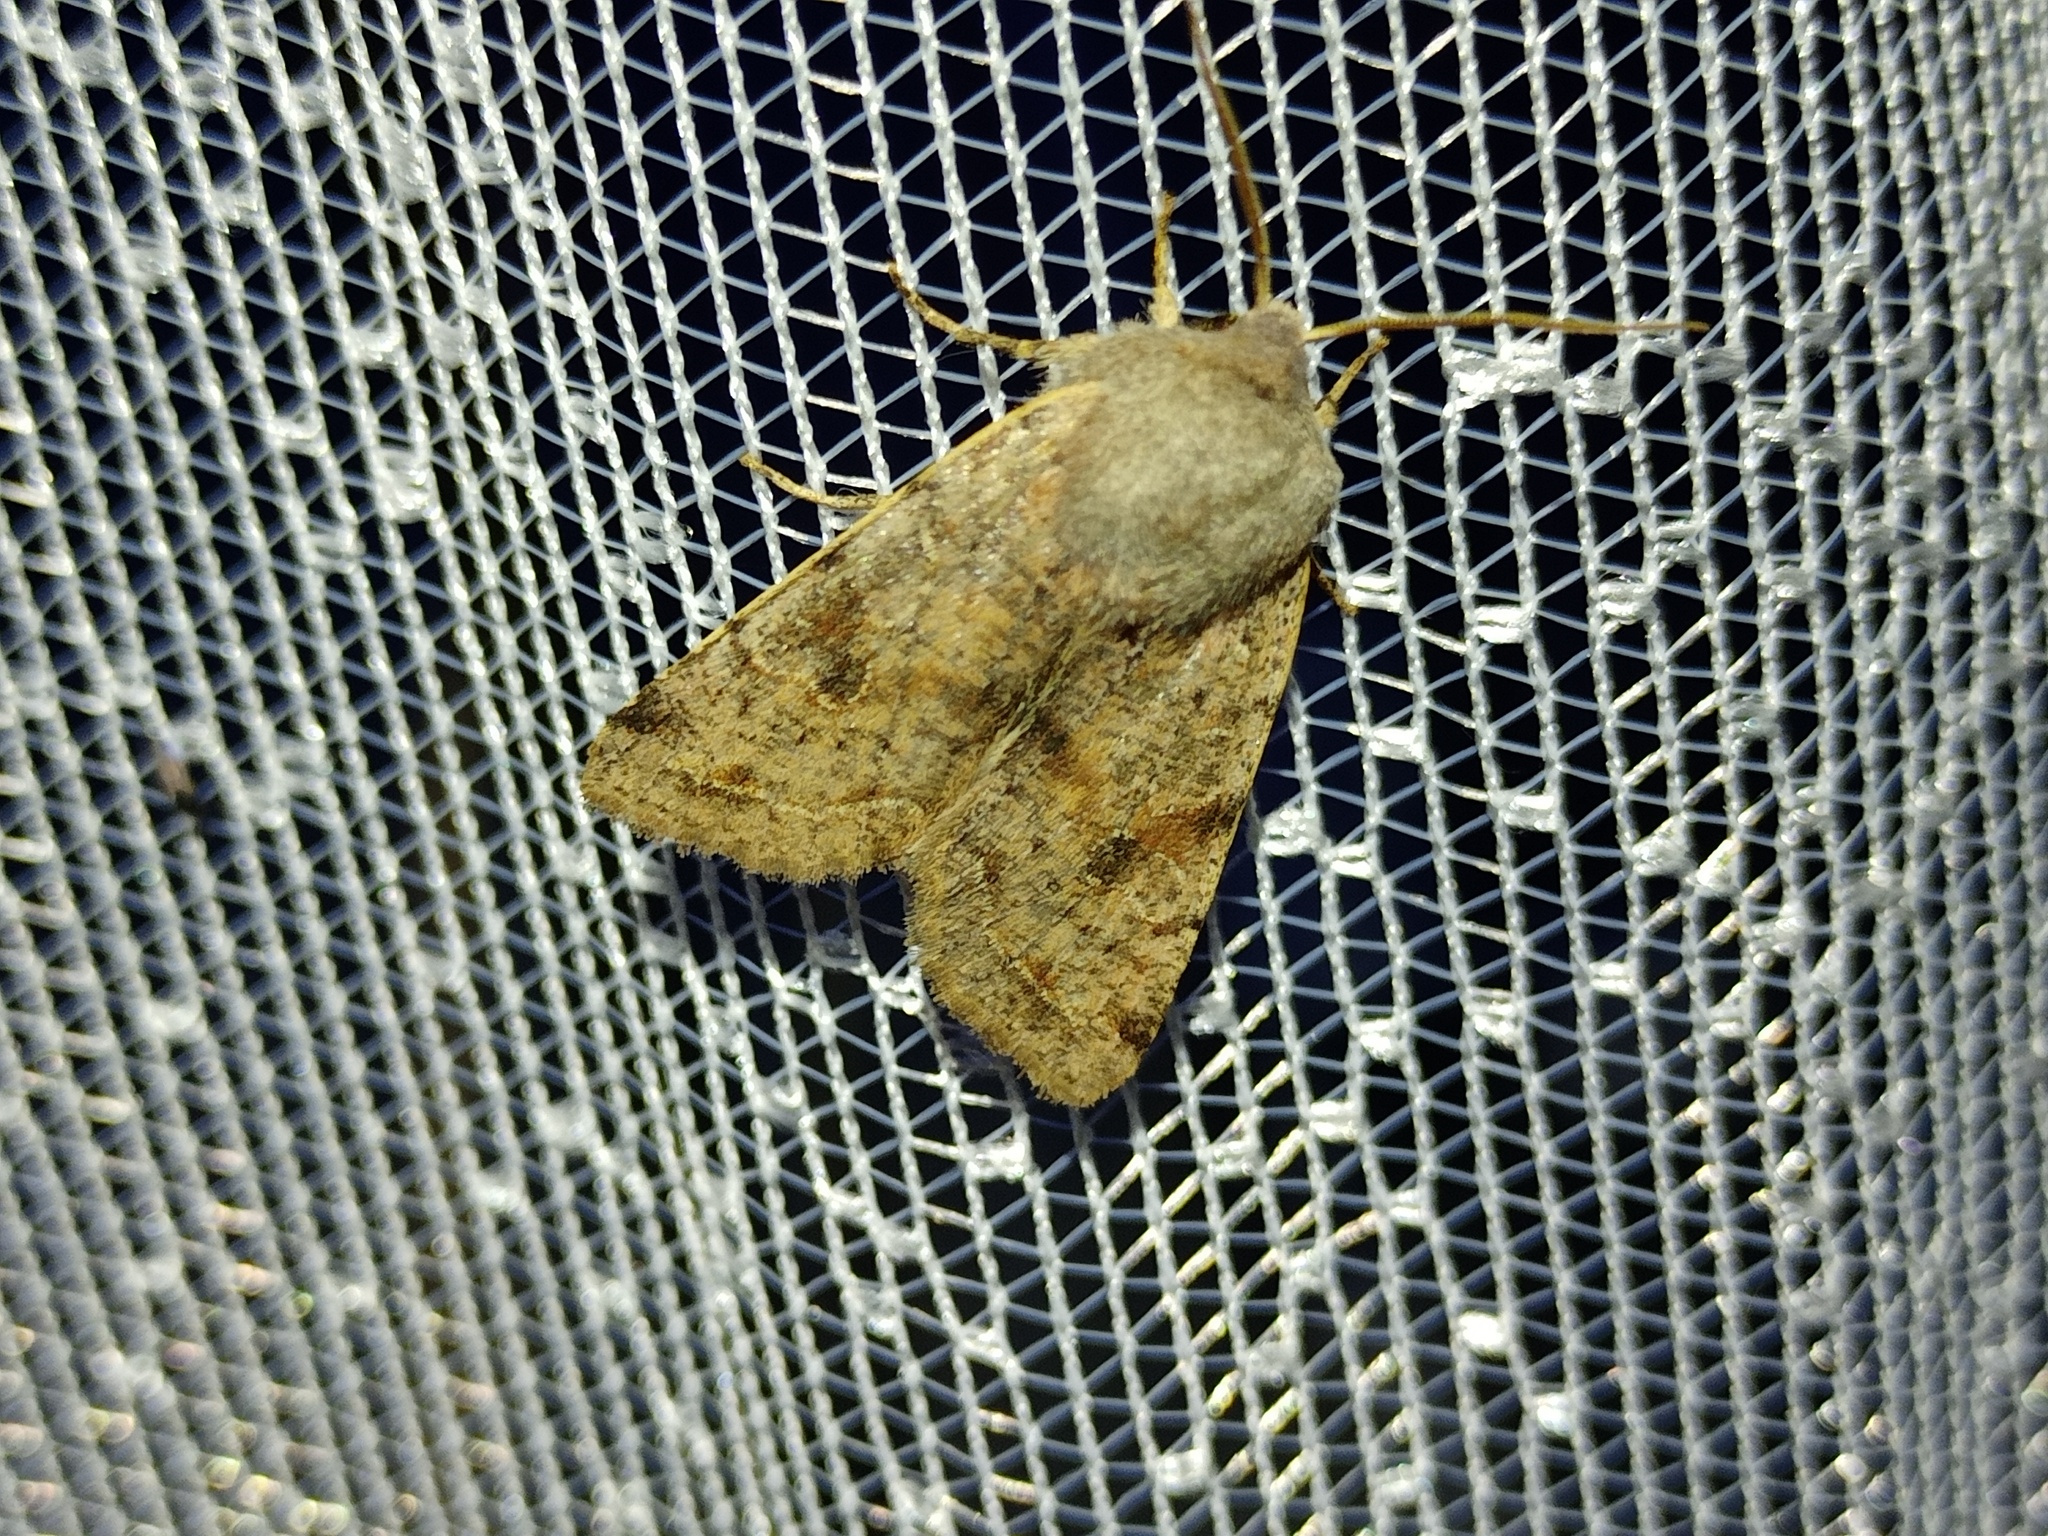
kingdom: Animalia
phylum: Arthropoda
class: Insecta
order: Lepidoptera
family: Noctuidae
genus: Orthosia
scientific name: Orthosia incerta
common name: Clouded drab
